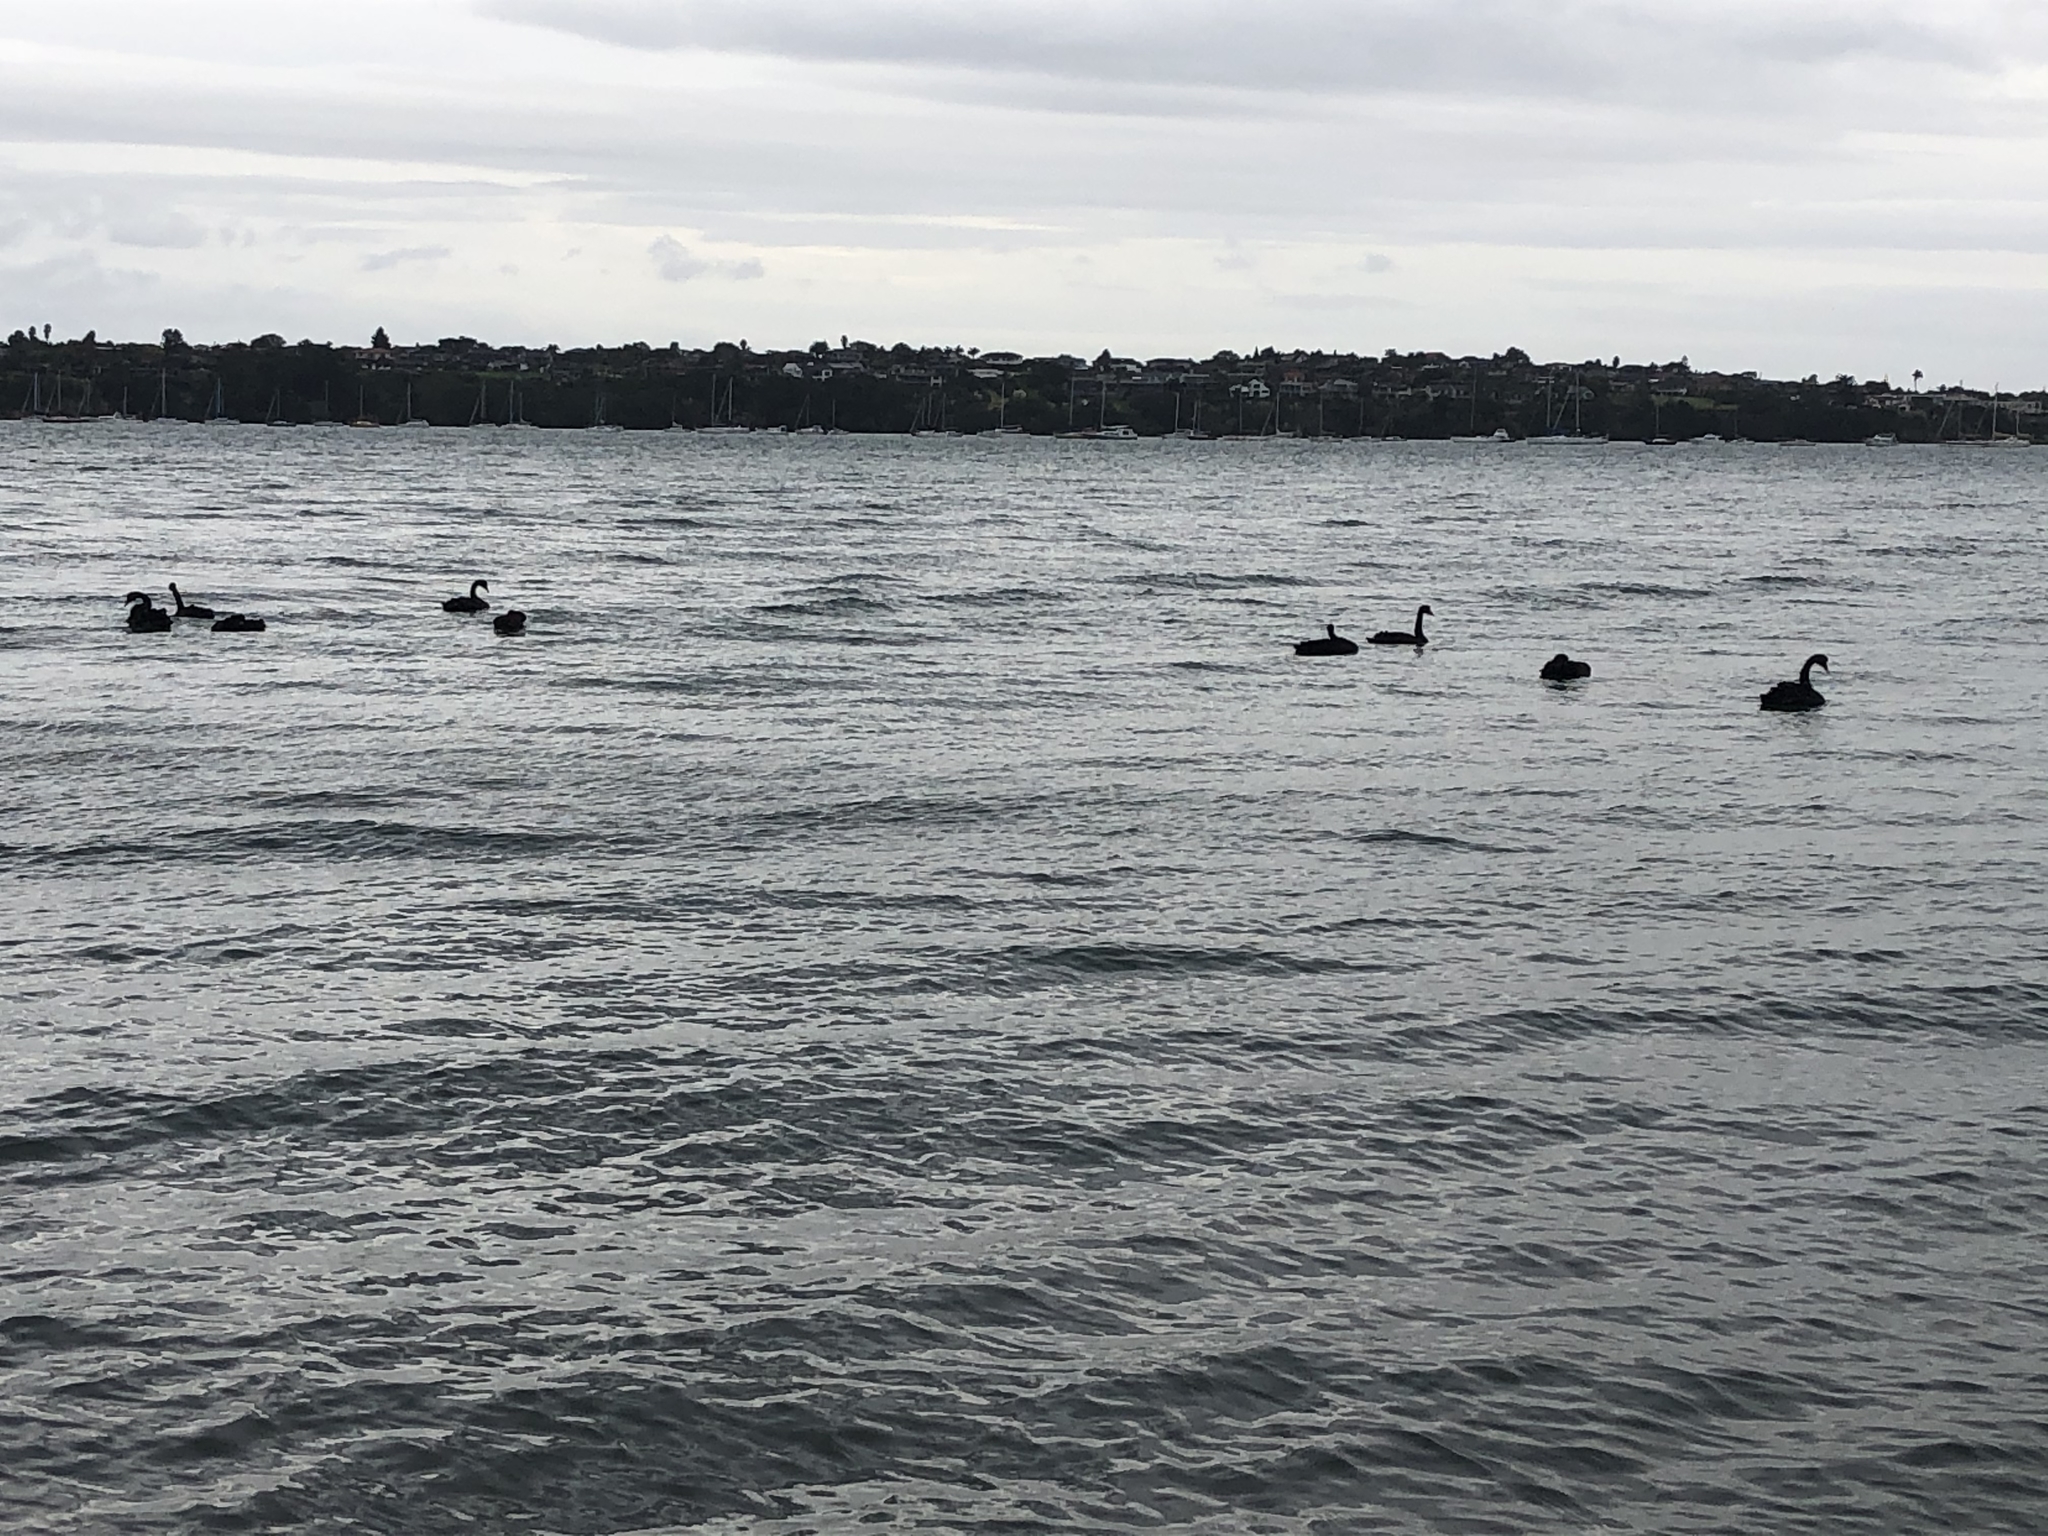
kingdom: Animalia
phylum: Chordata
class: Aves
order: Anseriformes
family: Anatidae
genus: Cygnus
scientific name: Cygnus atratus
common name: Black swan
